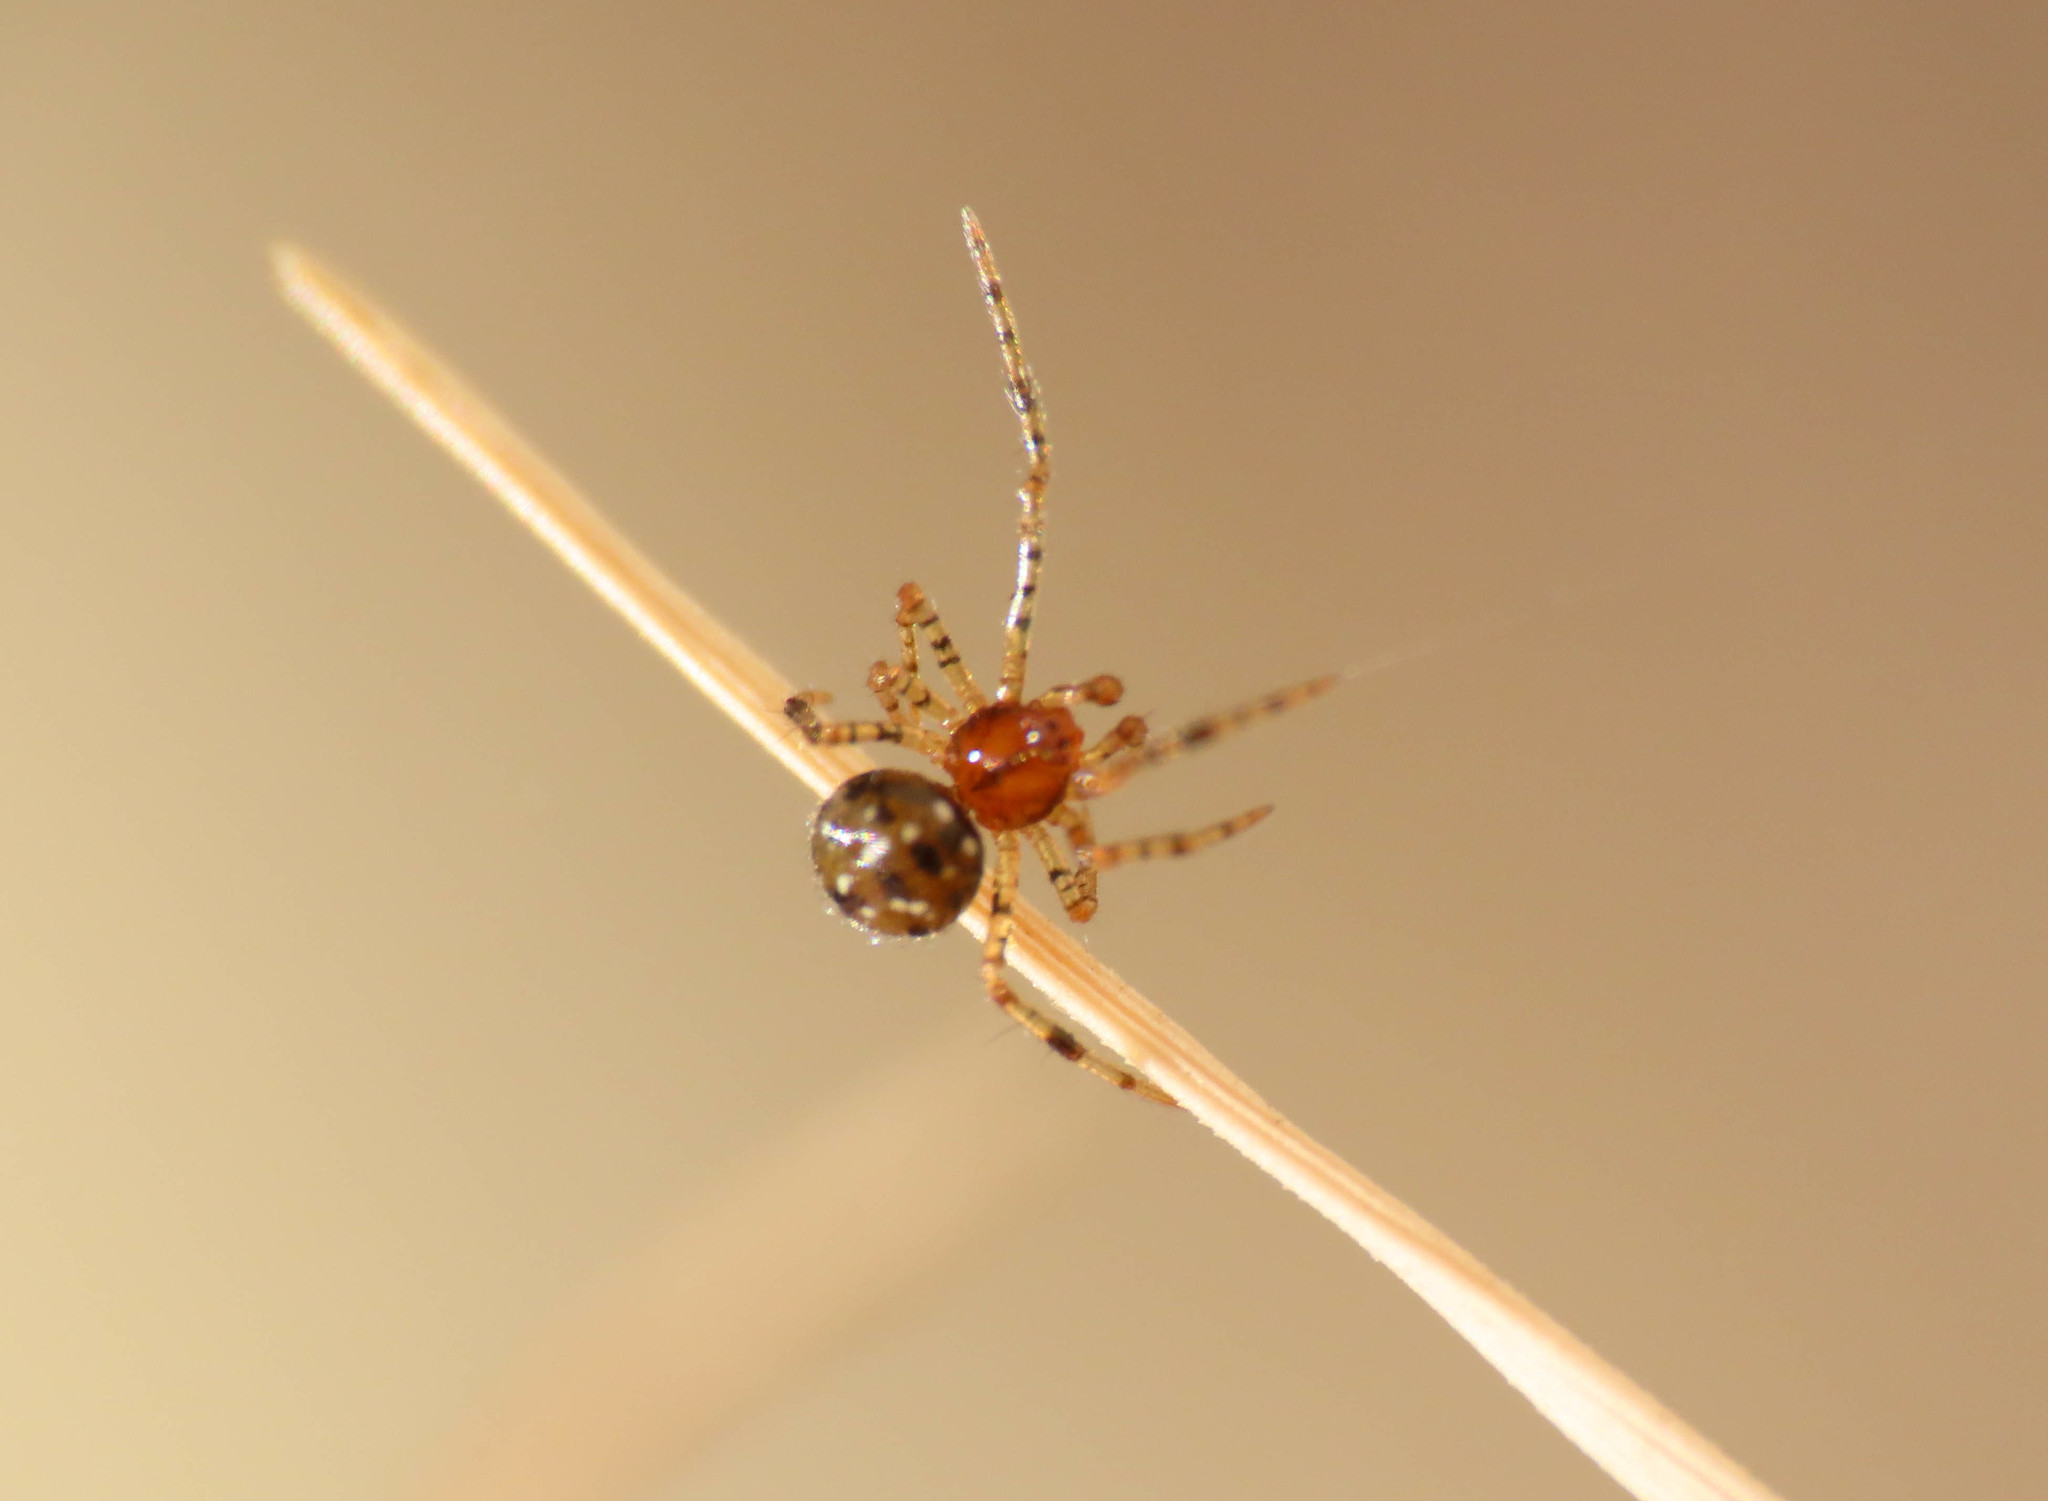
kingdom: Animalia
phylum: Arthropoda
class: Arachnida
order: Araneae
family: Theridiidae
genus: Neottiura
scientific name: Neottiura herbigrada
